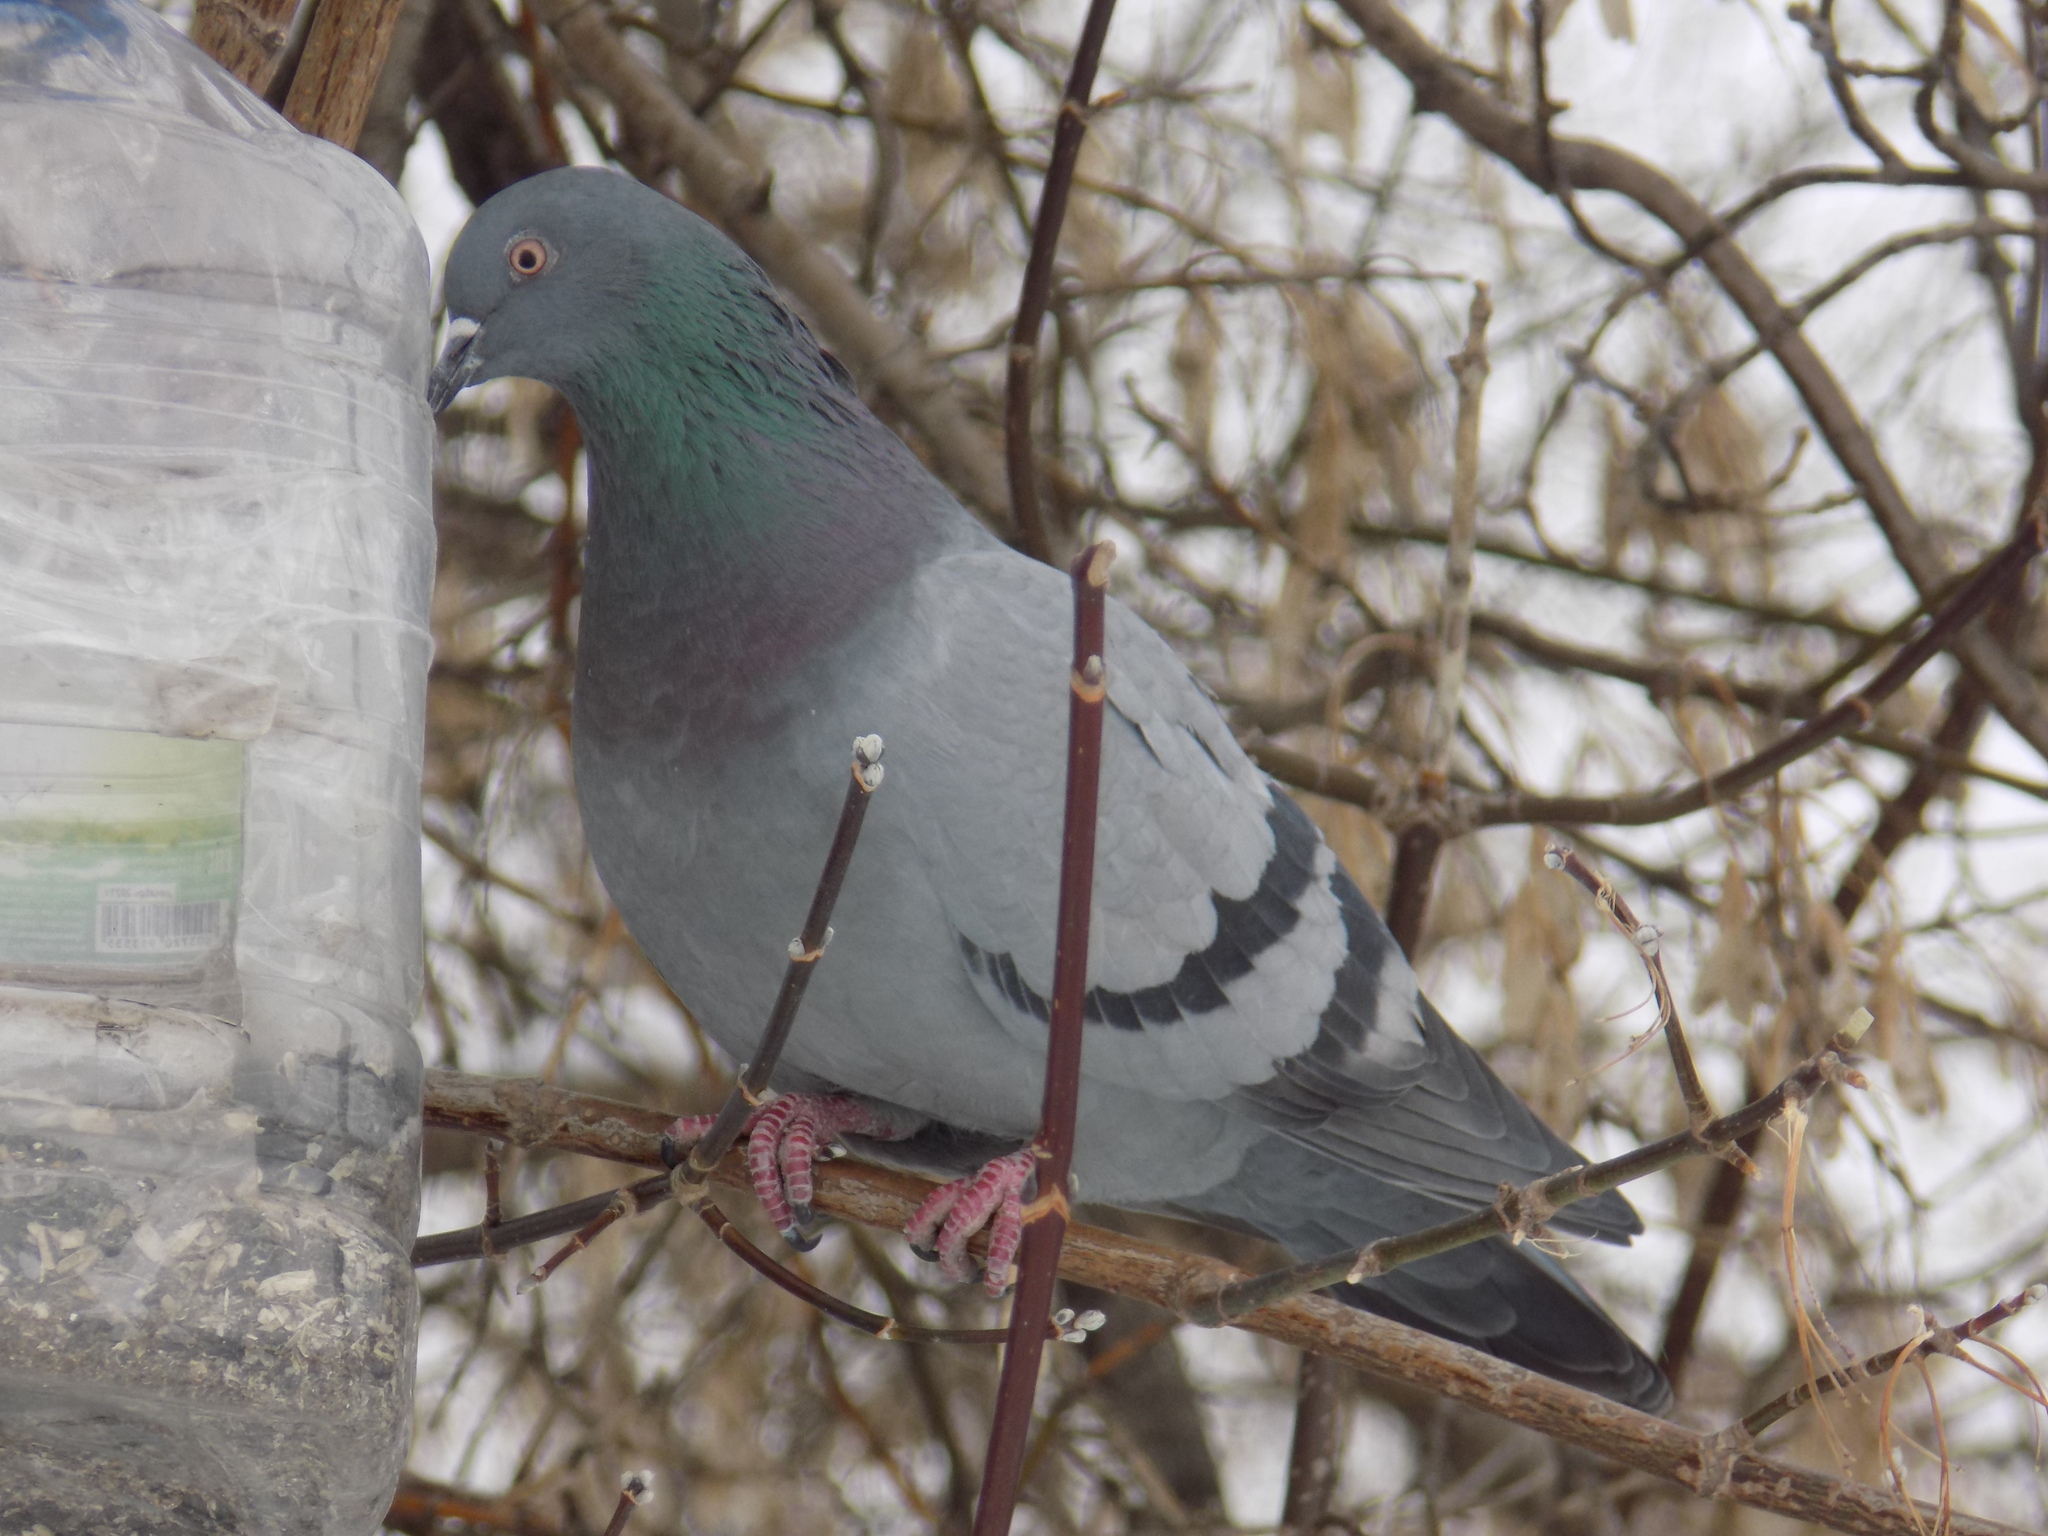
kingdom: Animalia
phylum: Chordata
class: Aves
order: Columbiformes
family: Columbidae
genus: Columba
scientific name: Columba livia
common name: Rock pigeon
